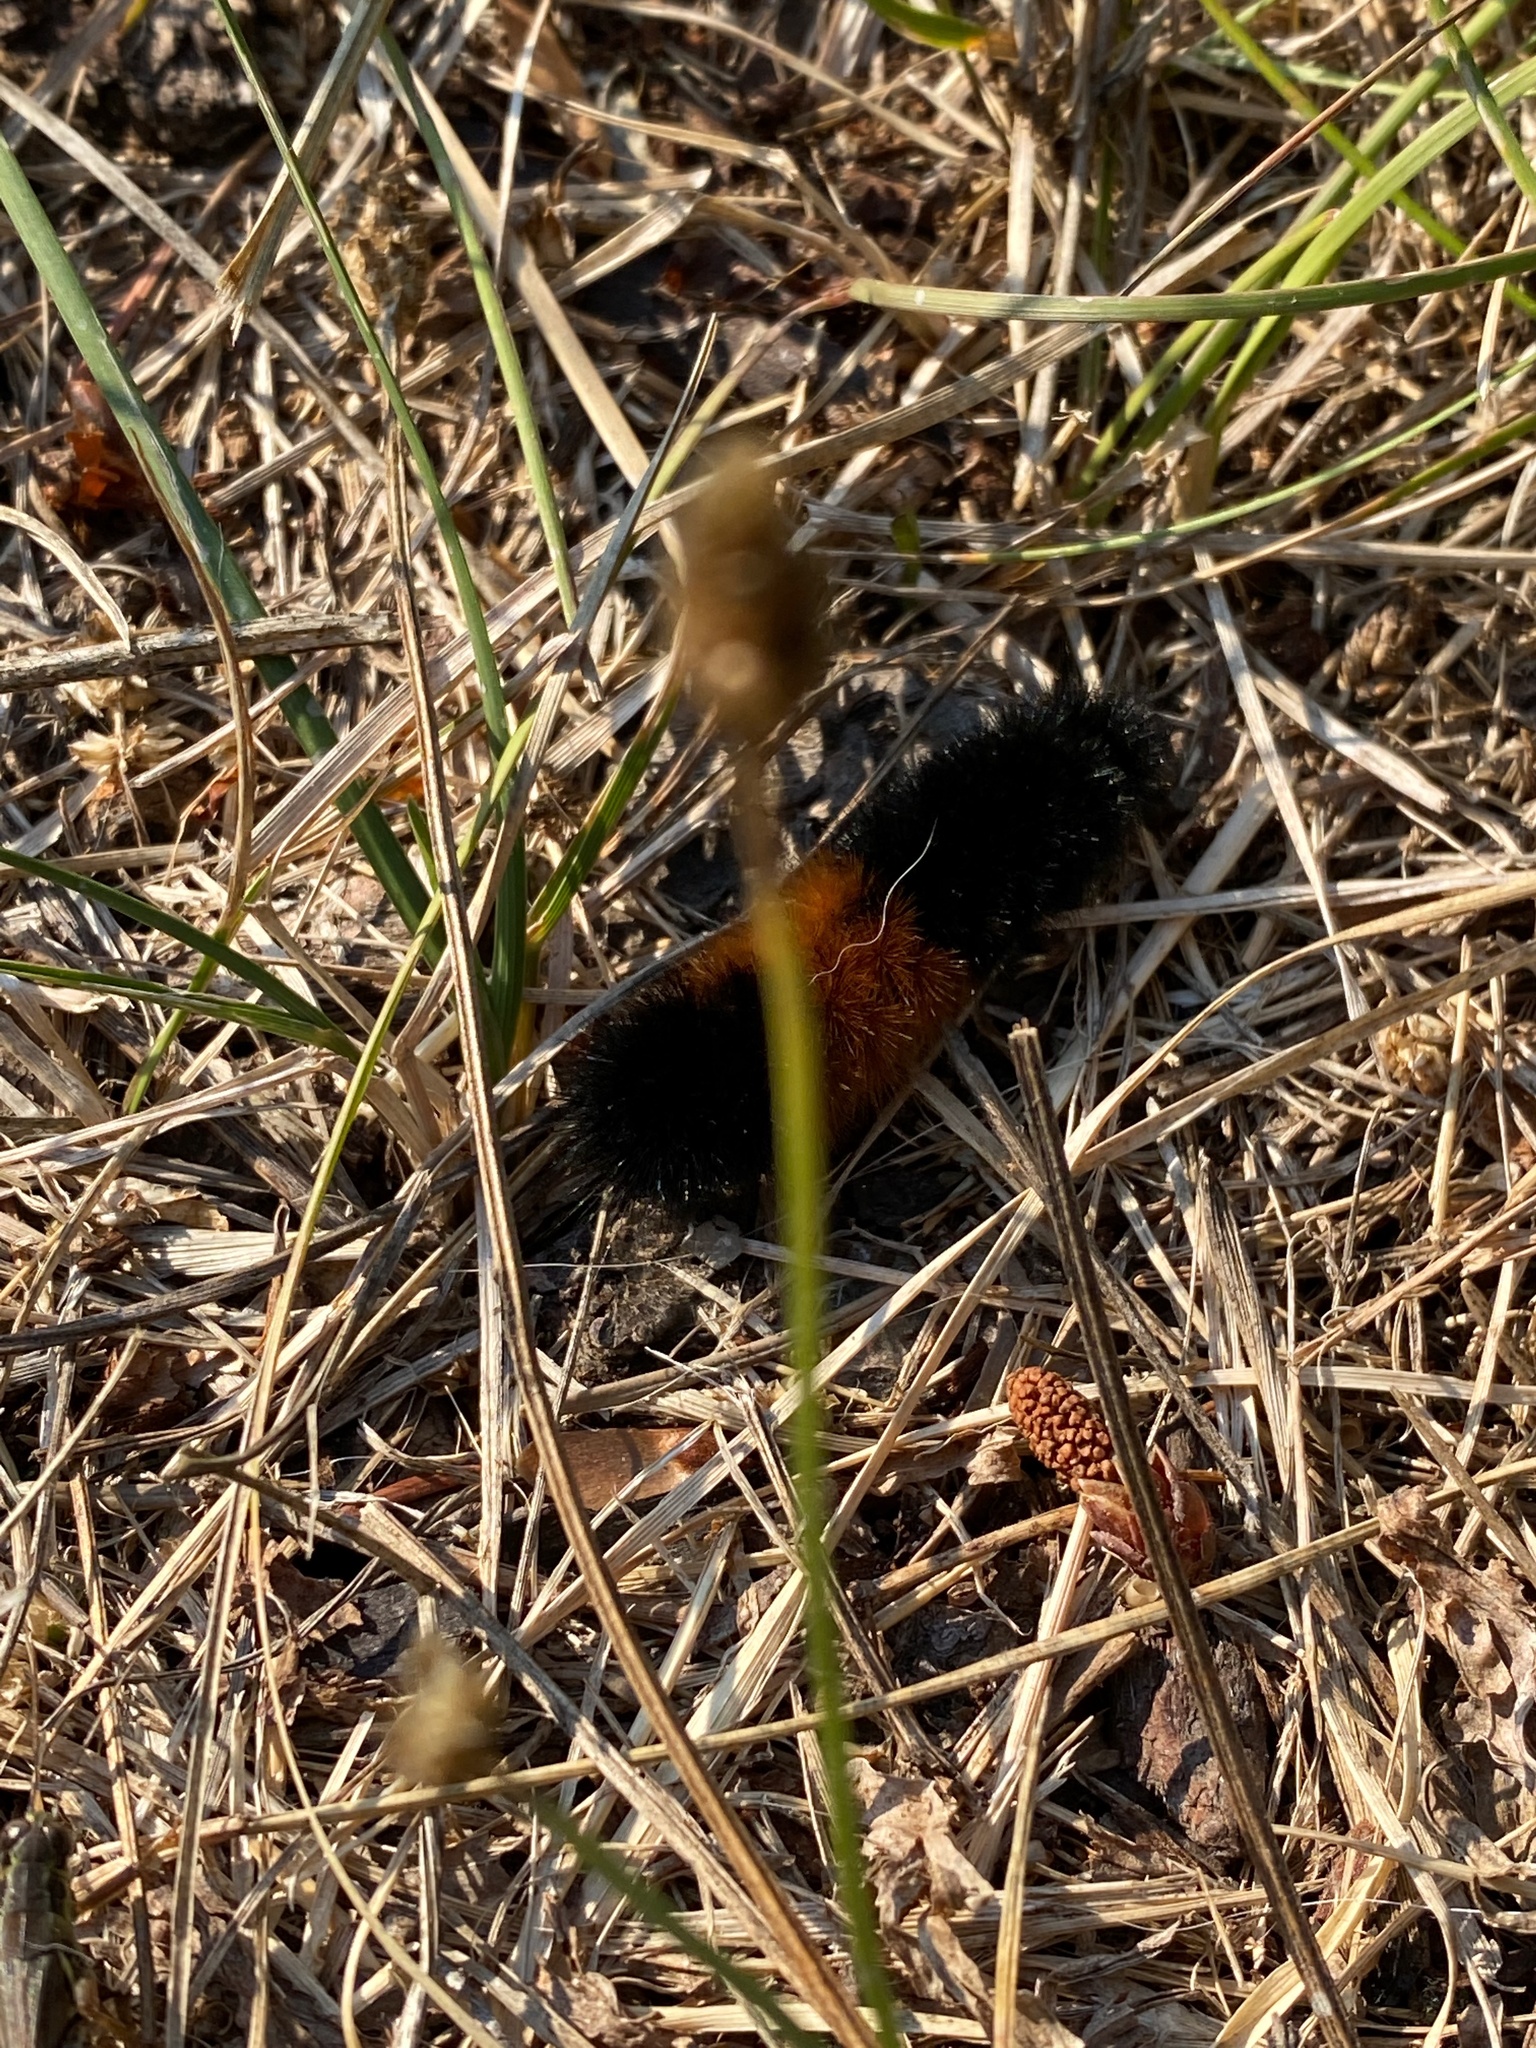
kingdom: Animalia
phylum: Arthropoda
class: Insecta
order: Lepidoptera
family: Erebidae
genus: Pyrrharctia
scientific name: Pyrrharctia isabella
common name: Isabella tiger moth
